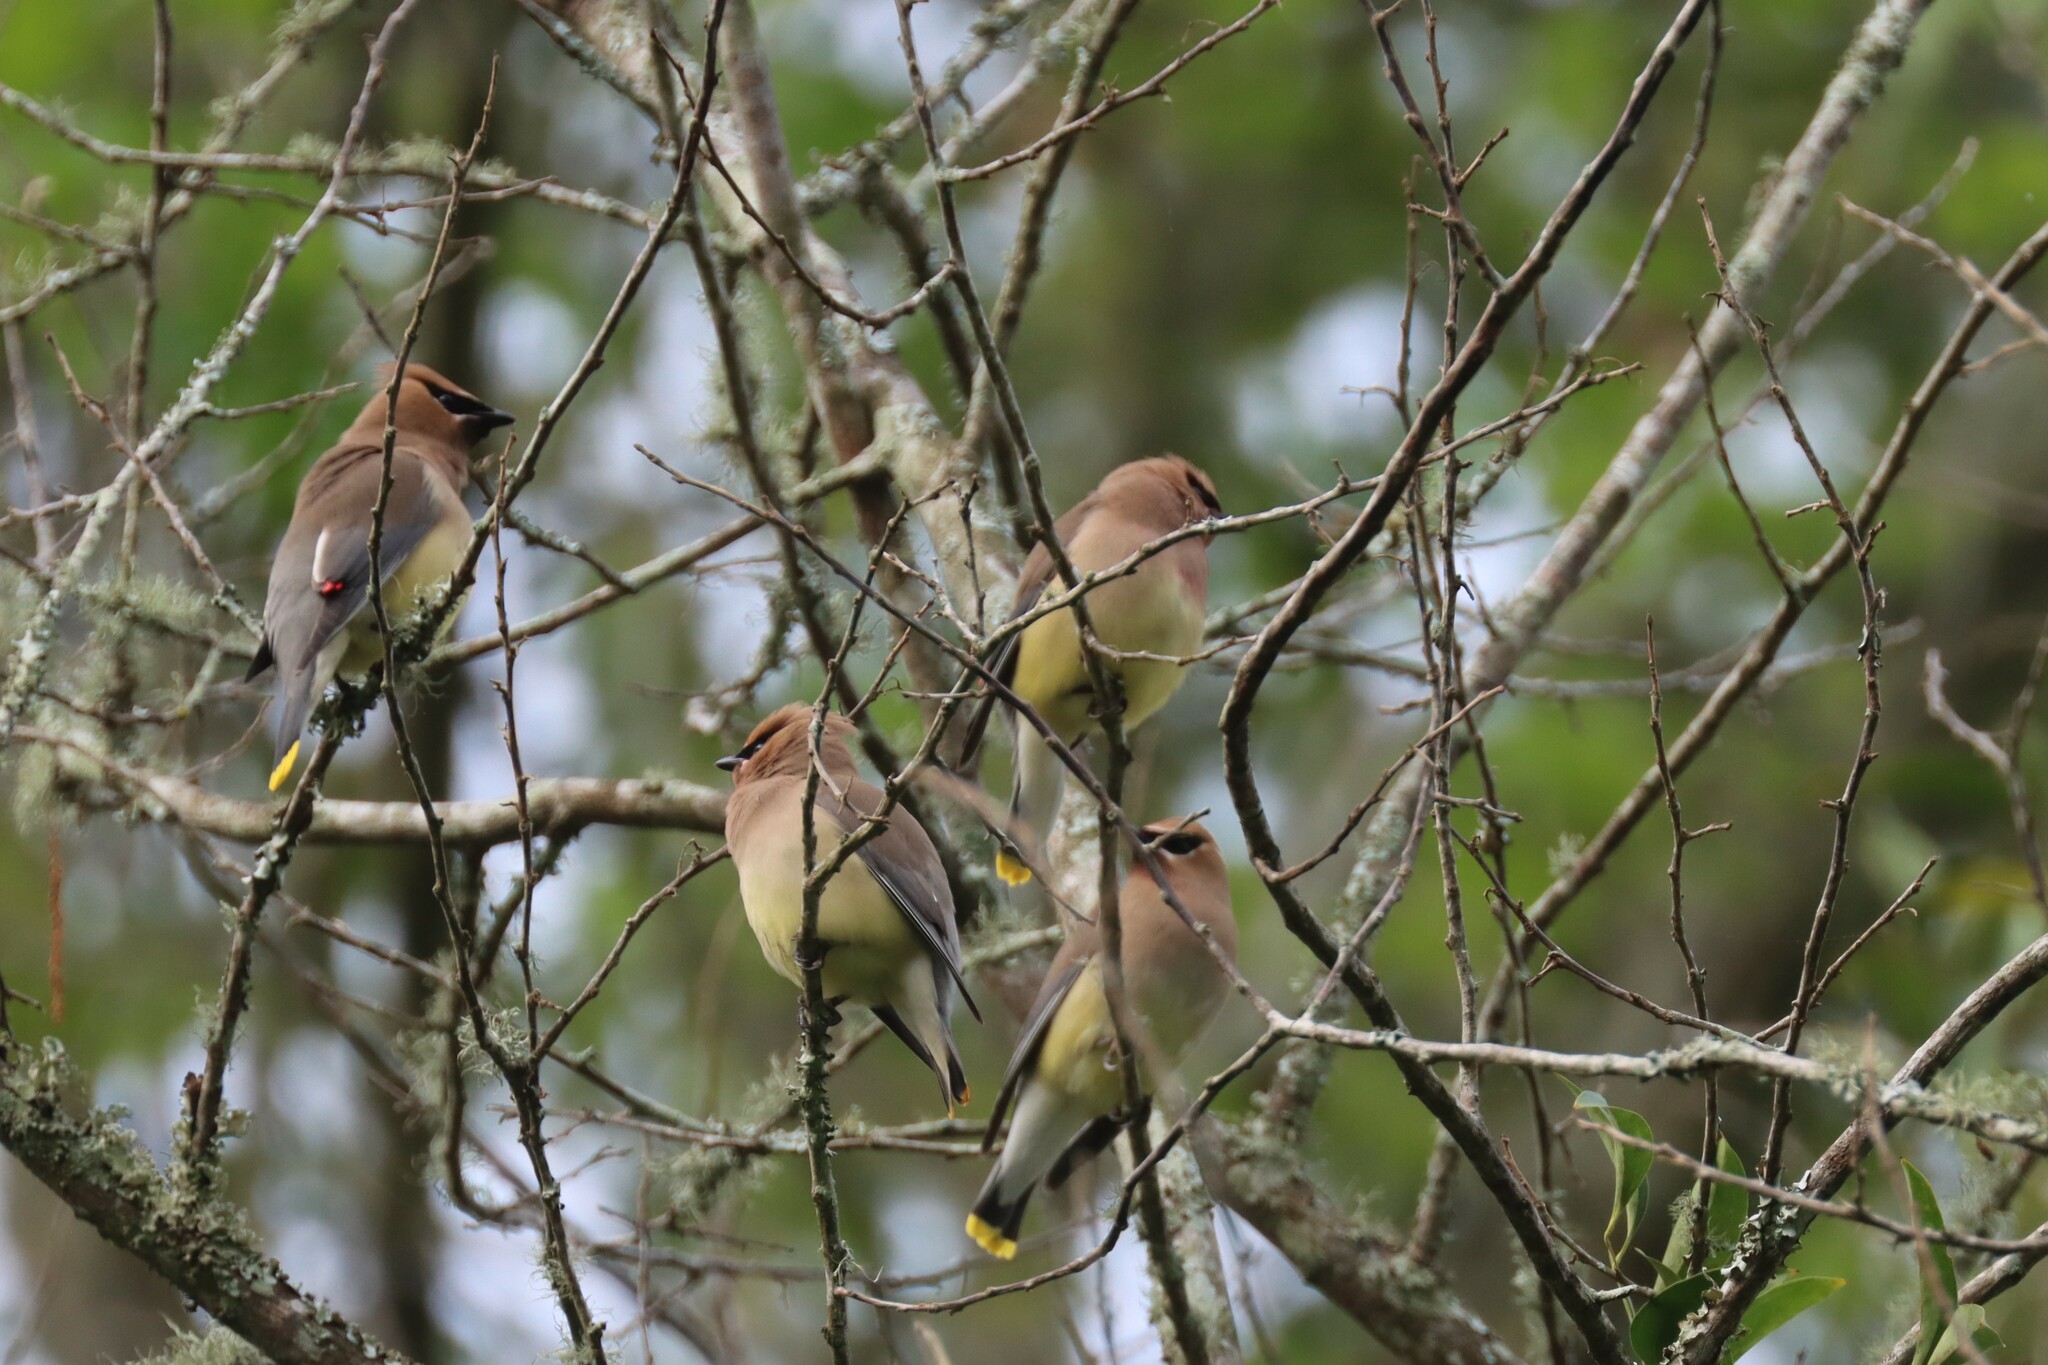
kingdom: Animalia
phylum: Chordata
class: Aves
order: Passeriformes
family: Bombycillidae
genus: Bombycilla
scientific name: Bombycilla cedrorum
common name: Cedar waxwing
